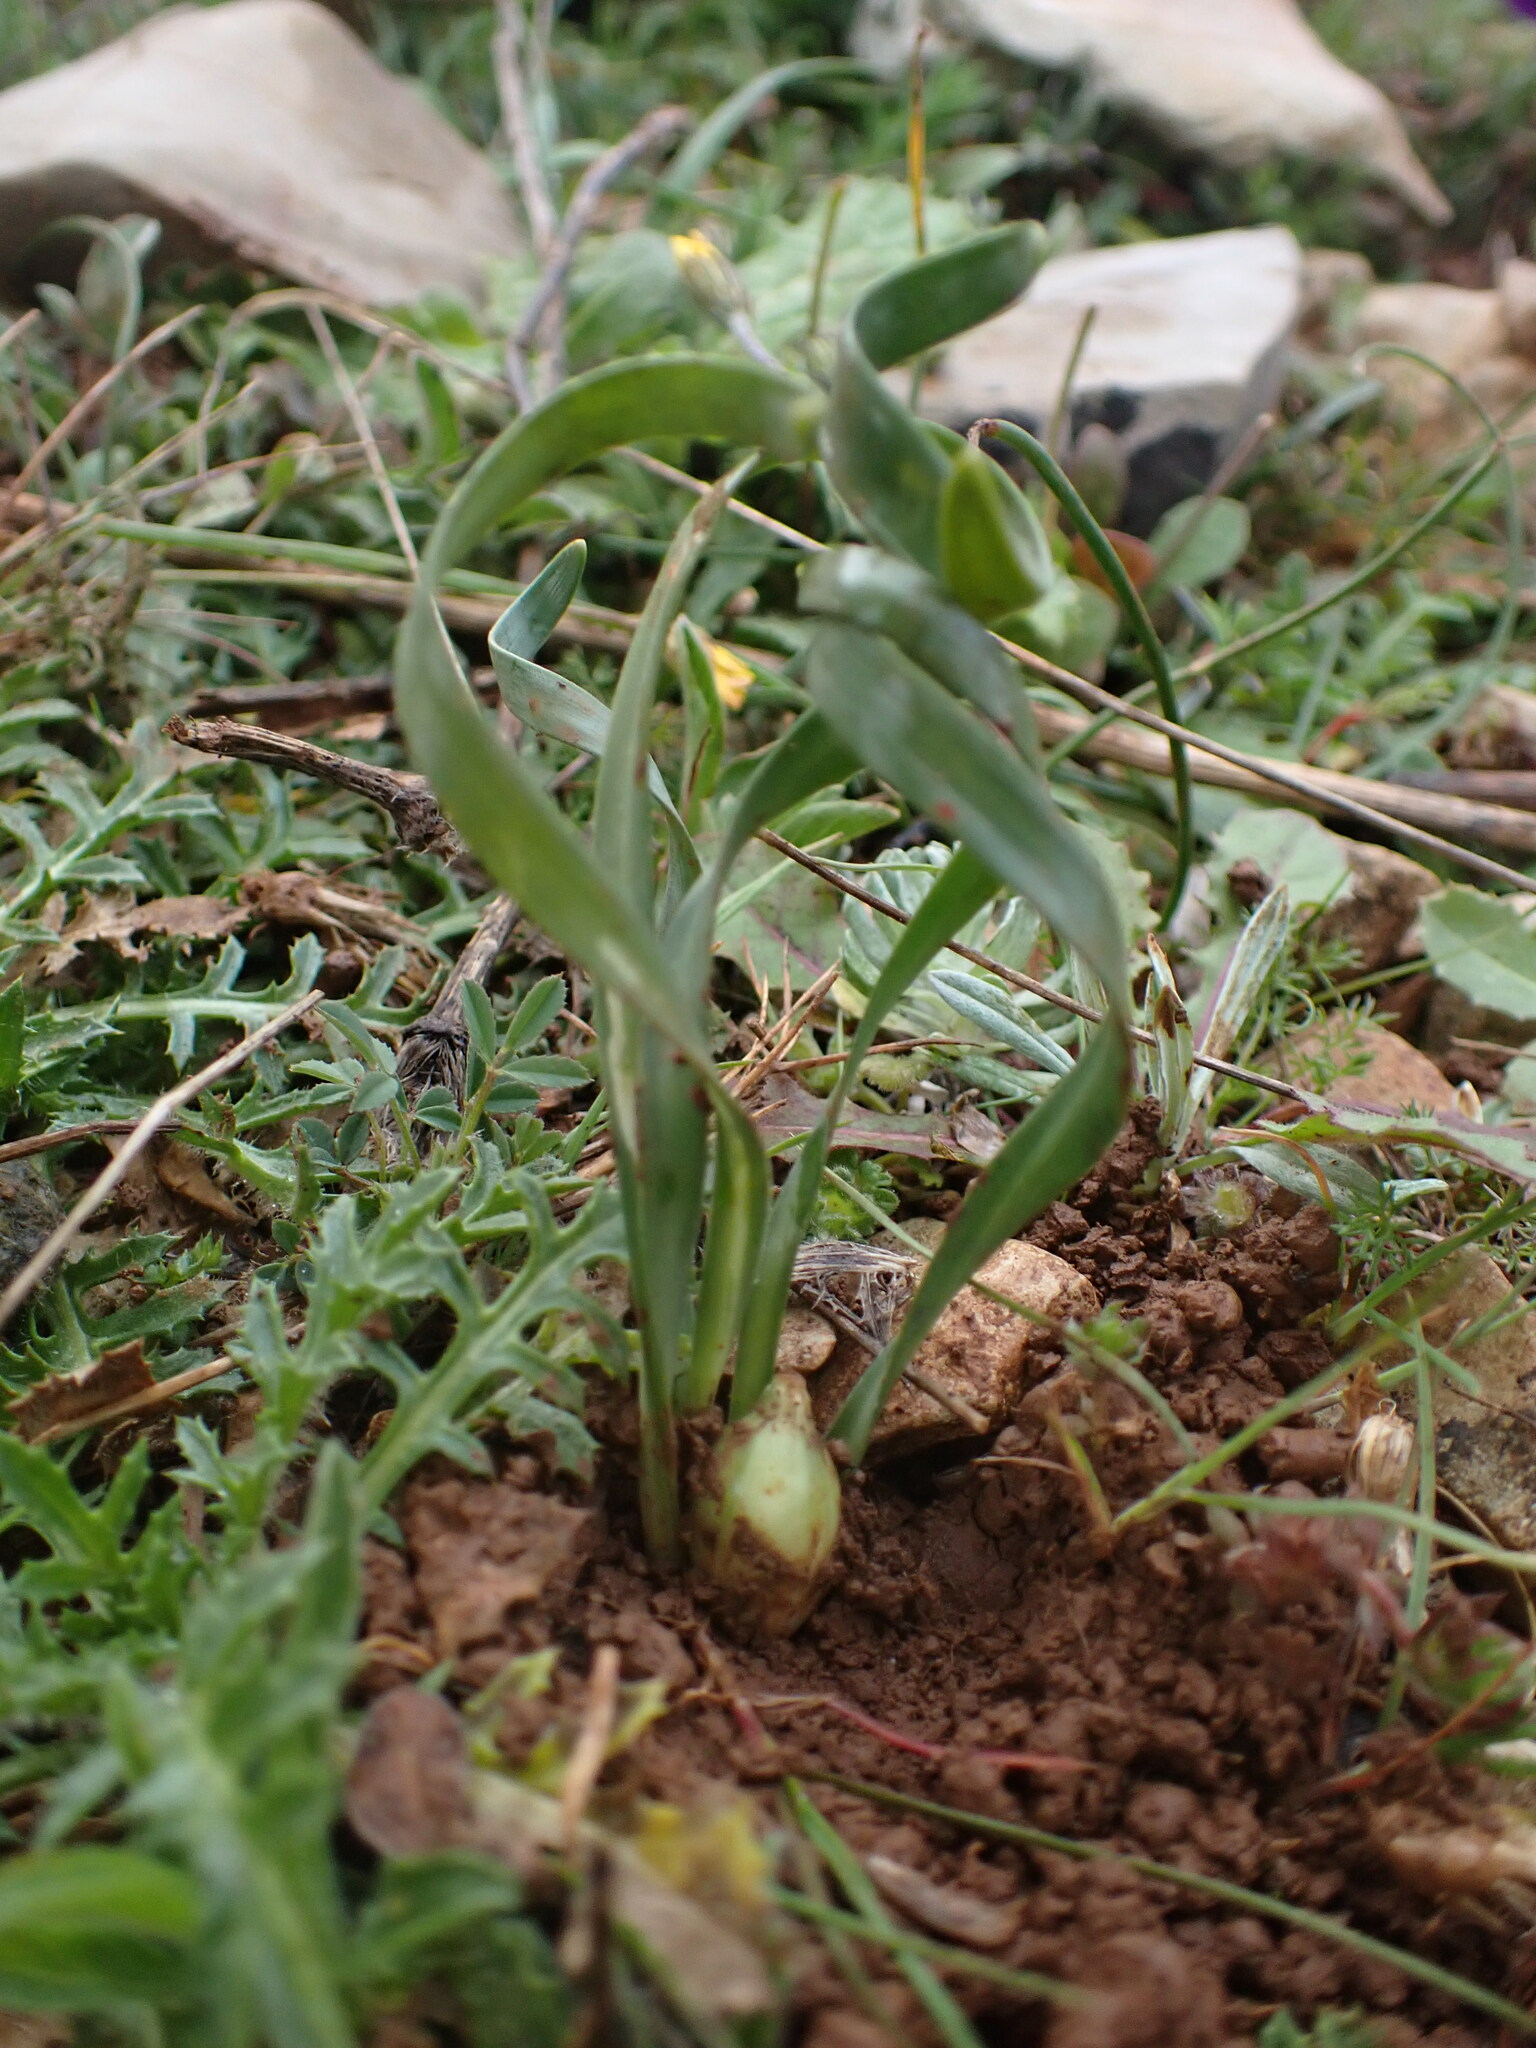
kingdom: Plantae
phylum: Tracheophyta
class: Liliopsida
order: Asparagales
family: Amaryllidaceae
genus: Sternbergia
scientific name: Sternbergia colchiciflora
